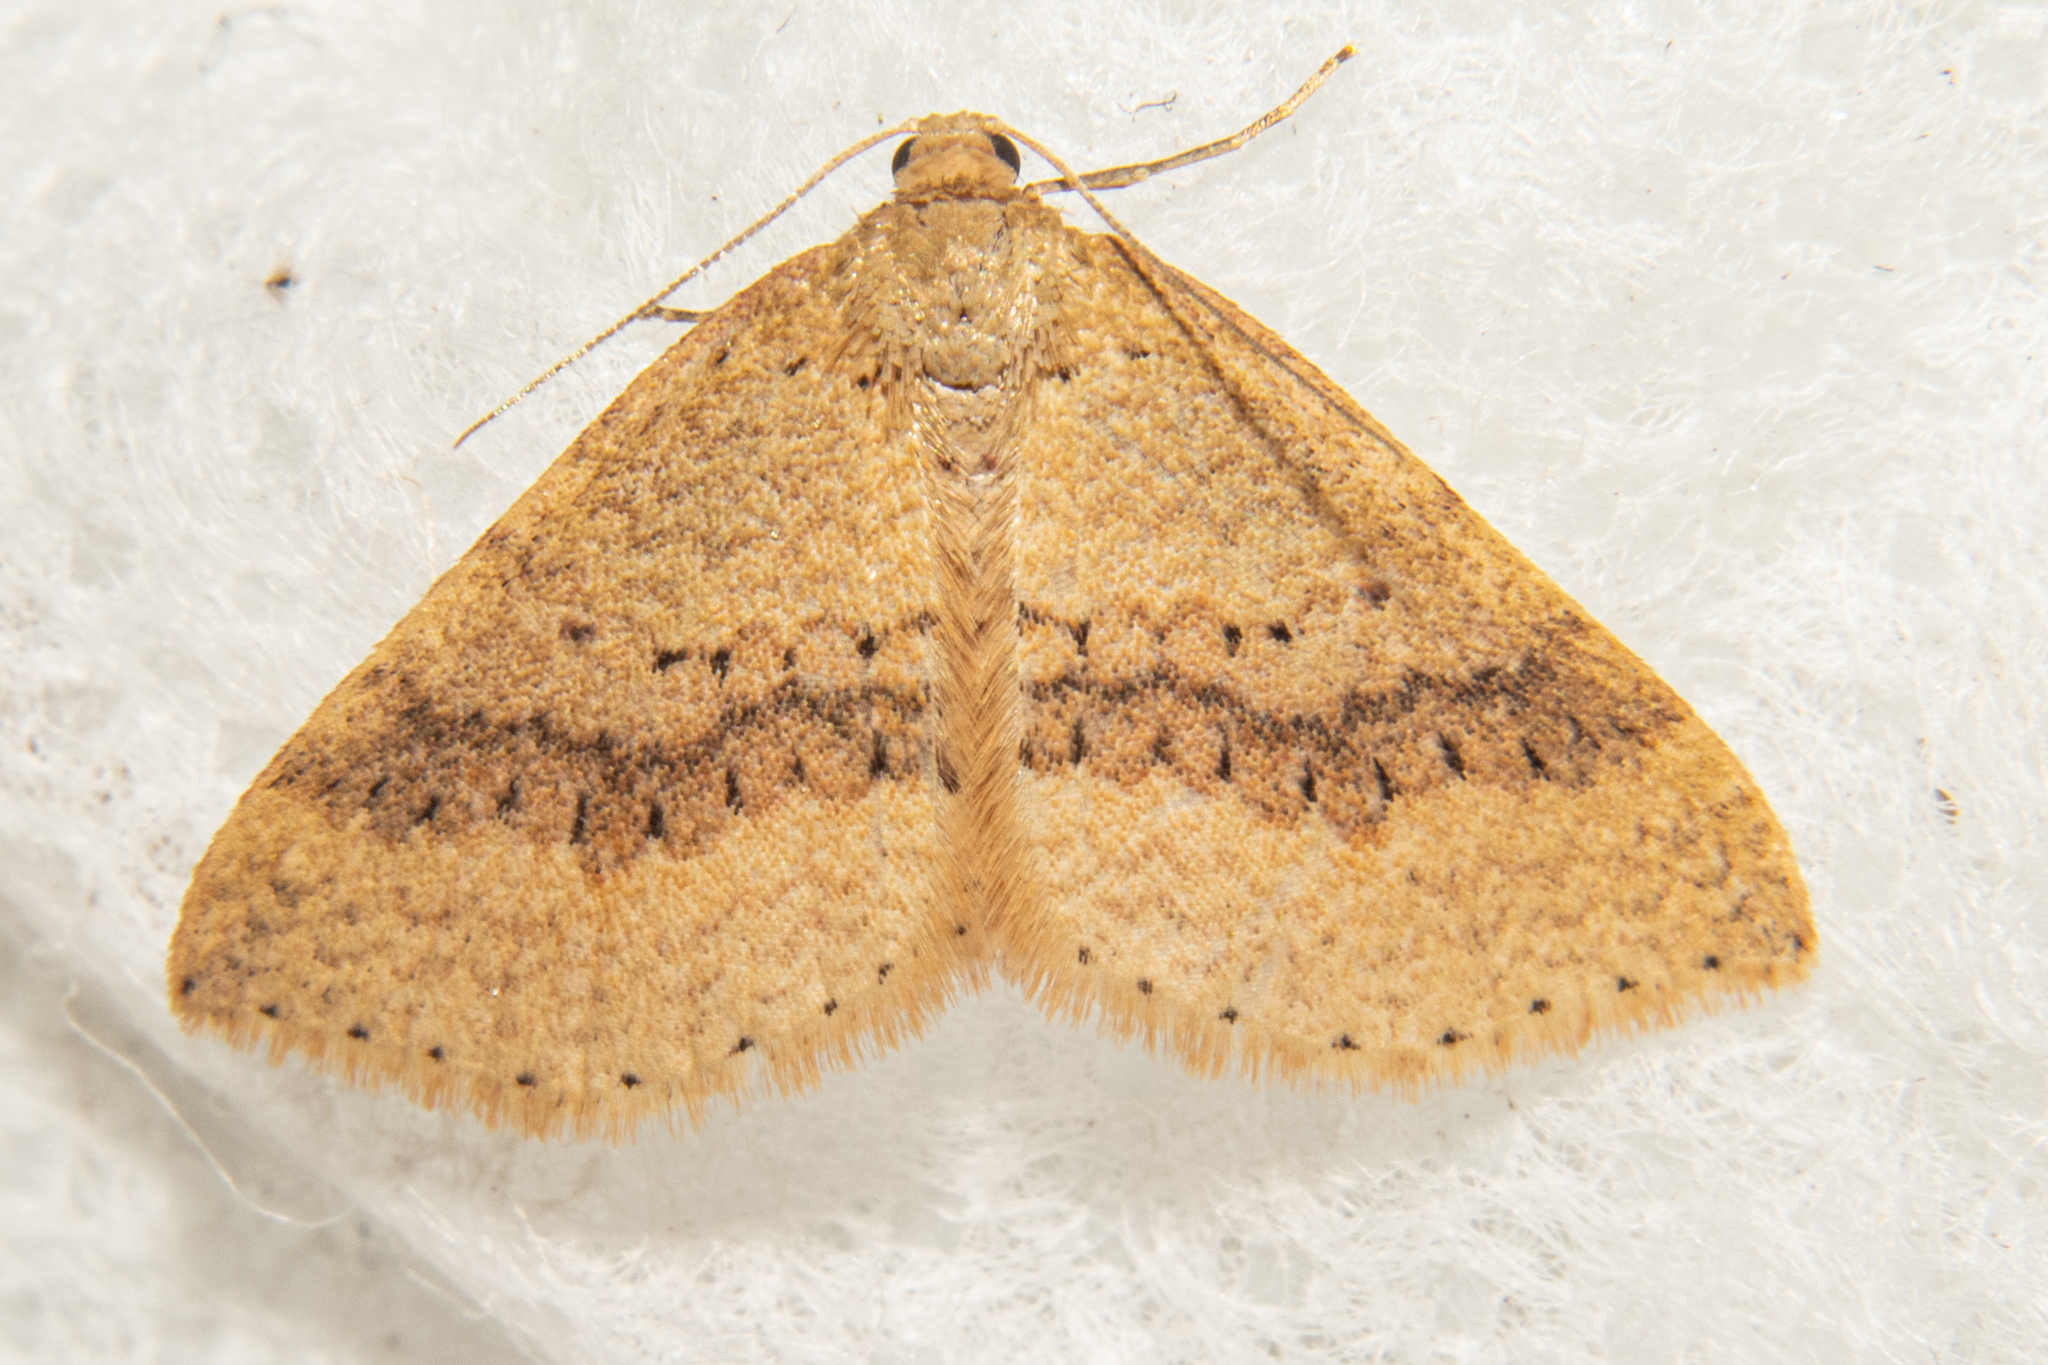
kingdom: Animalia
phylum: Arthropoda
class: Insecta
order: Lepidoptera
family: Geometridae
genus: Epicyme
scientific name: Epicyme rubropunctaria
